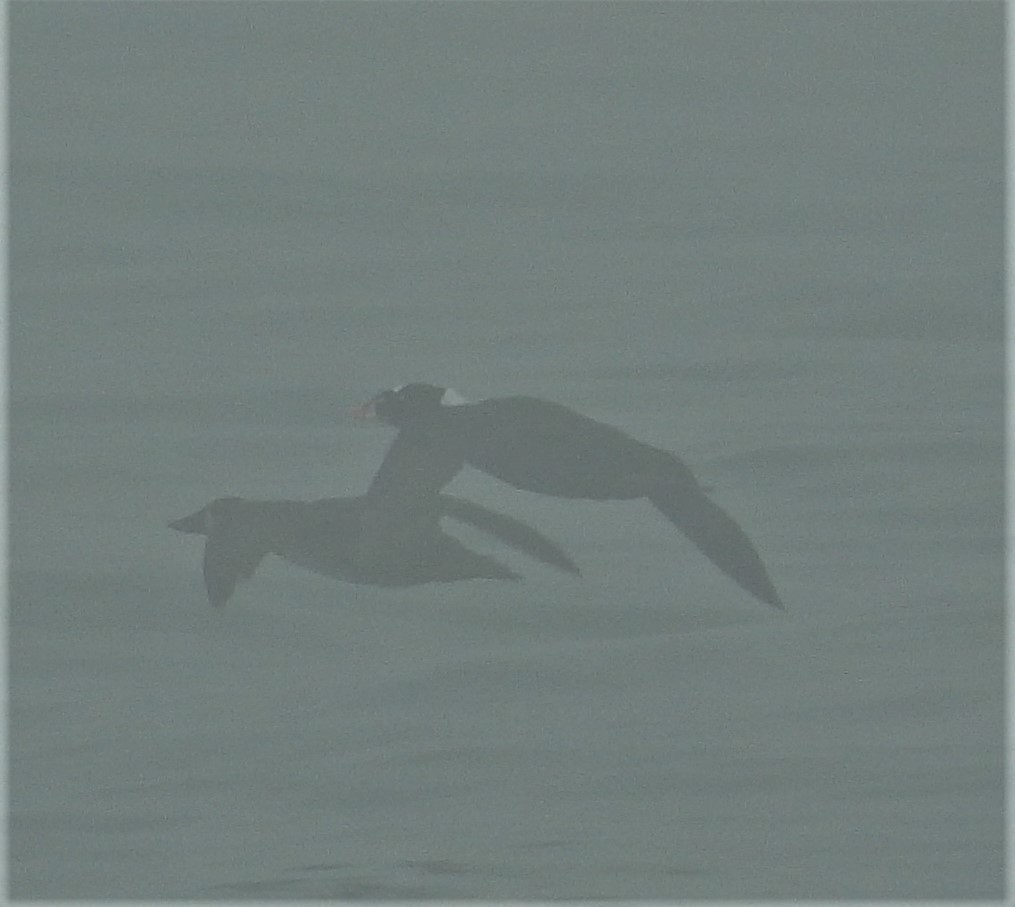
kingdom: Animalia
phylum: Chordata
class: Aves
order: Anseriformes
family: Anatidae
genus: Melanitta
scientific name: Melanitta perspicillata
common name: Surf scoter
